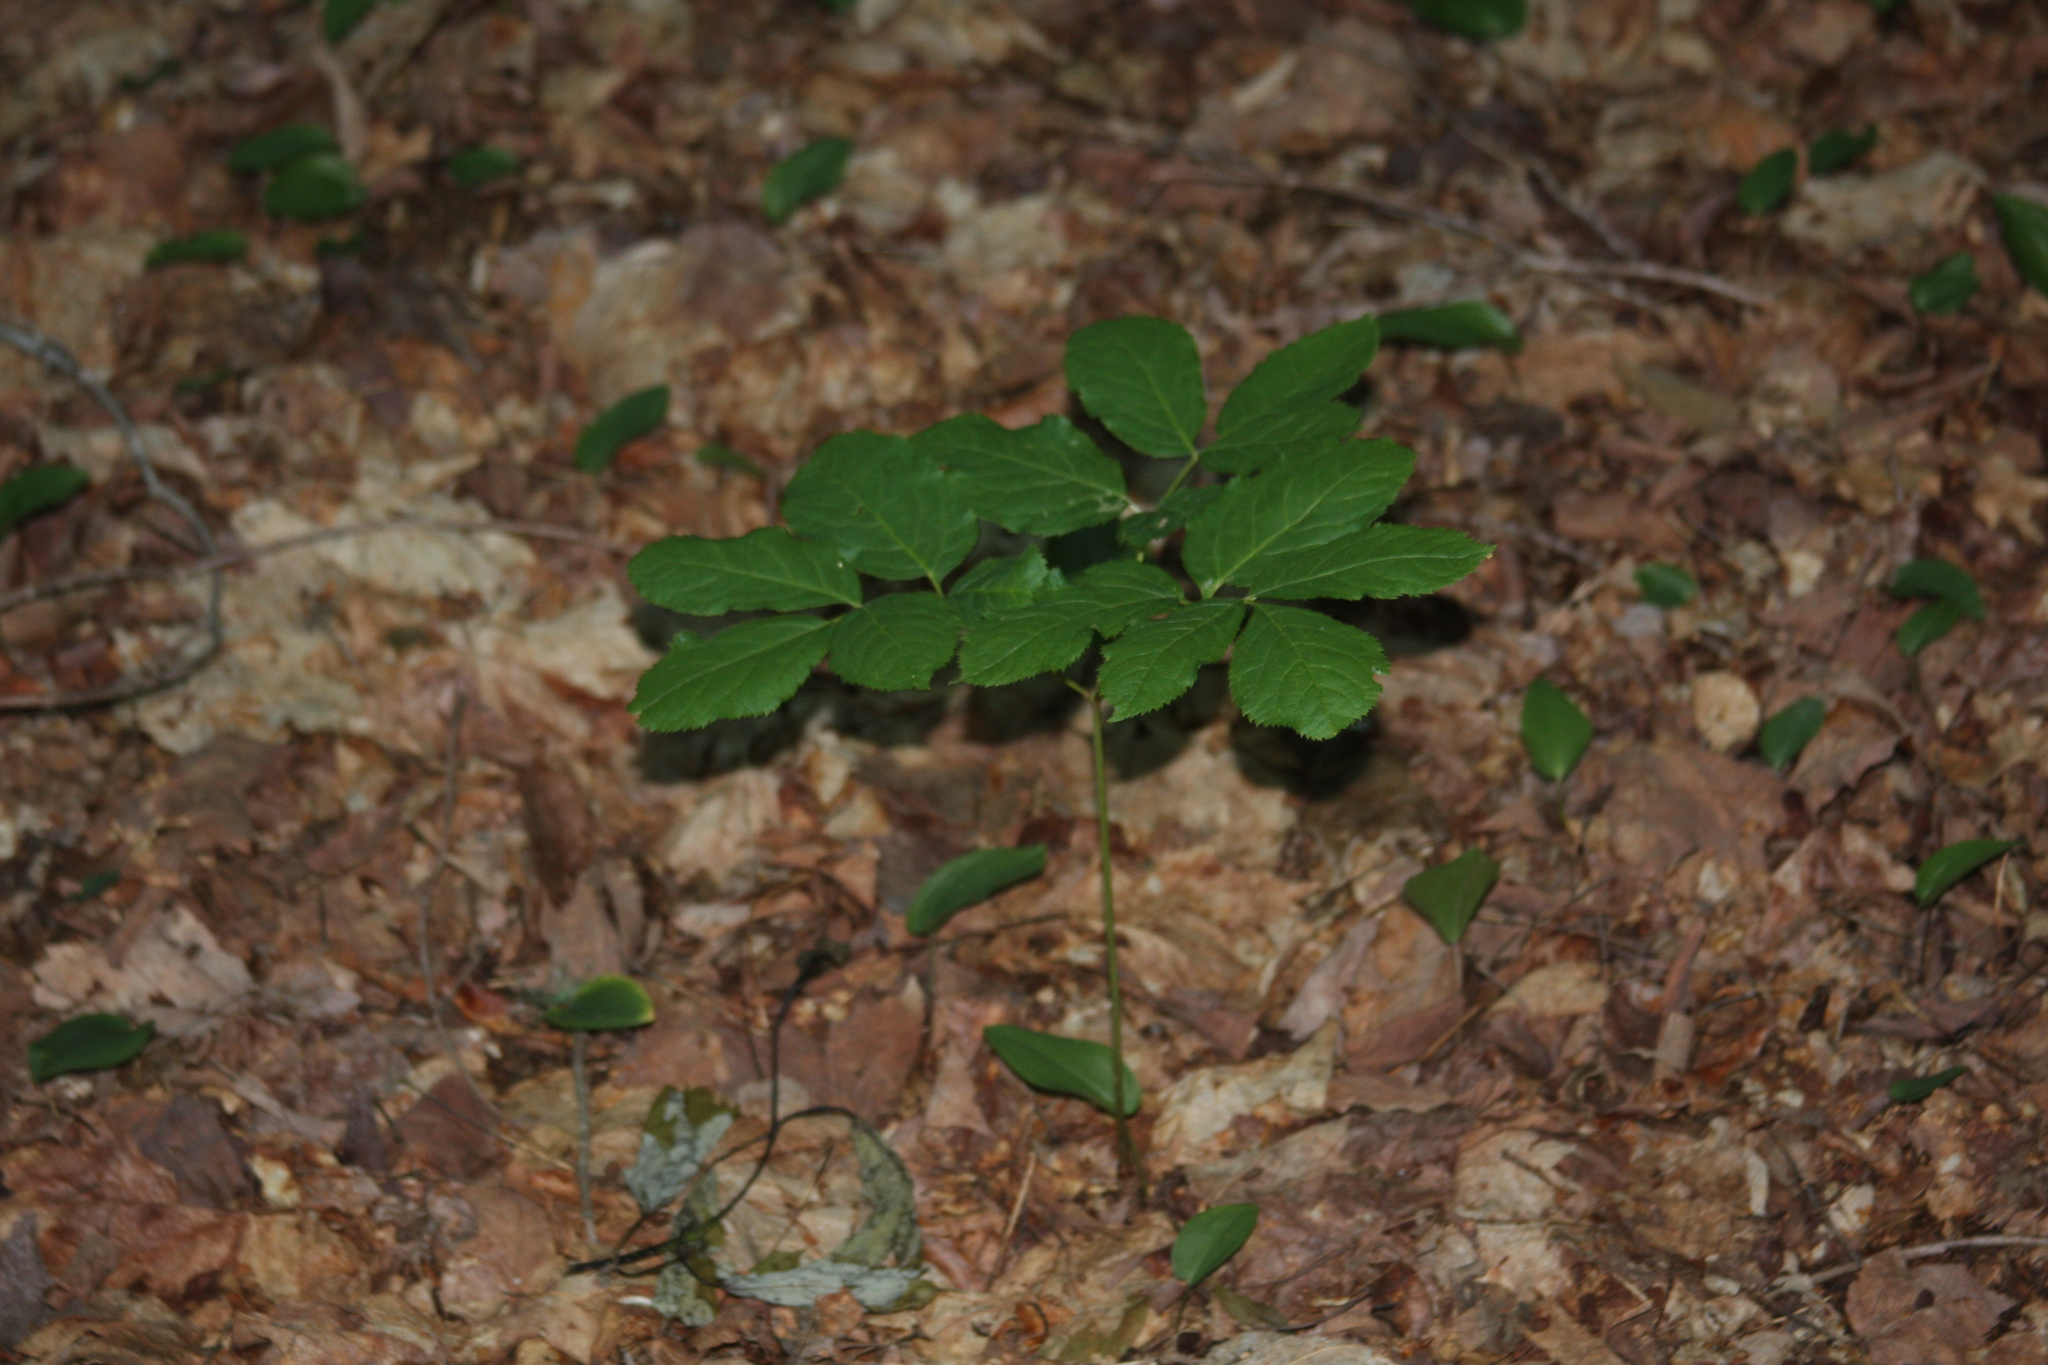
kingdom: Plantae
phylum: Tracheophyta
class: Magnoliopsida
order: Apiales
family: Araliaceae
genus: Aralia
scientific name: Aralia nudicaulis
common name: Wild sarsaparilla
